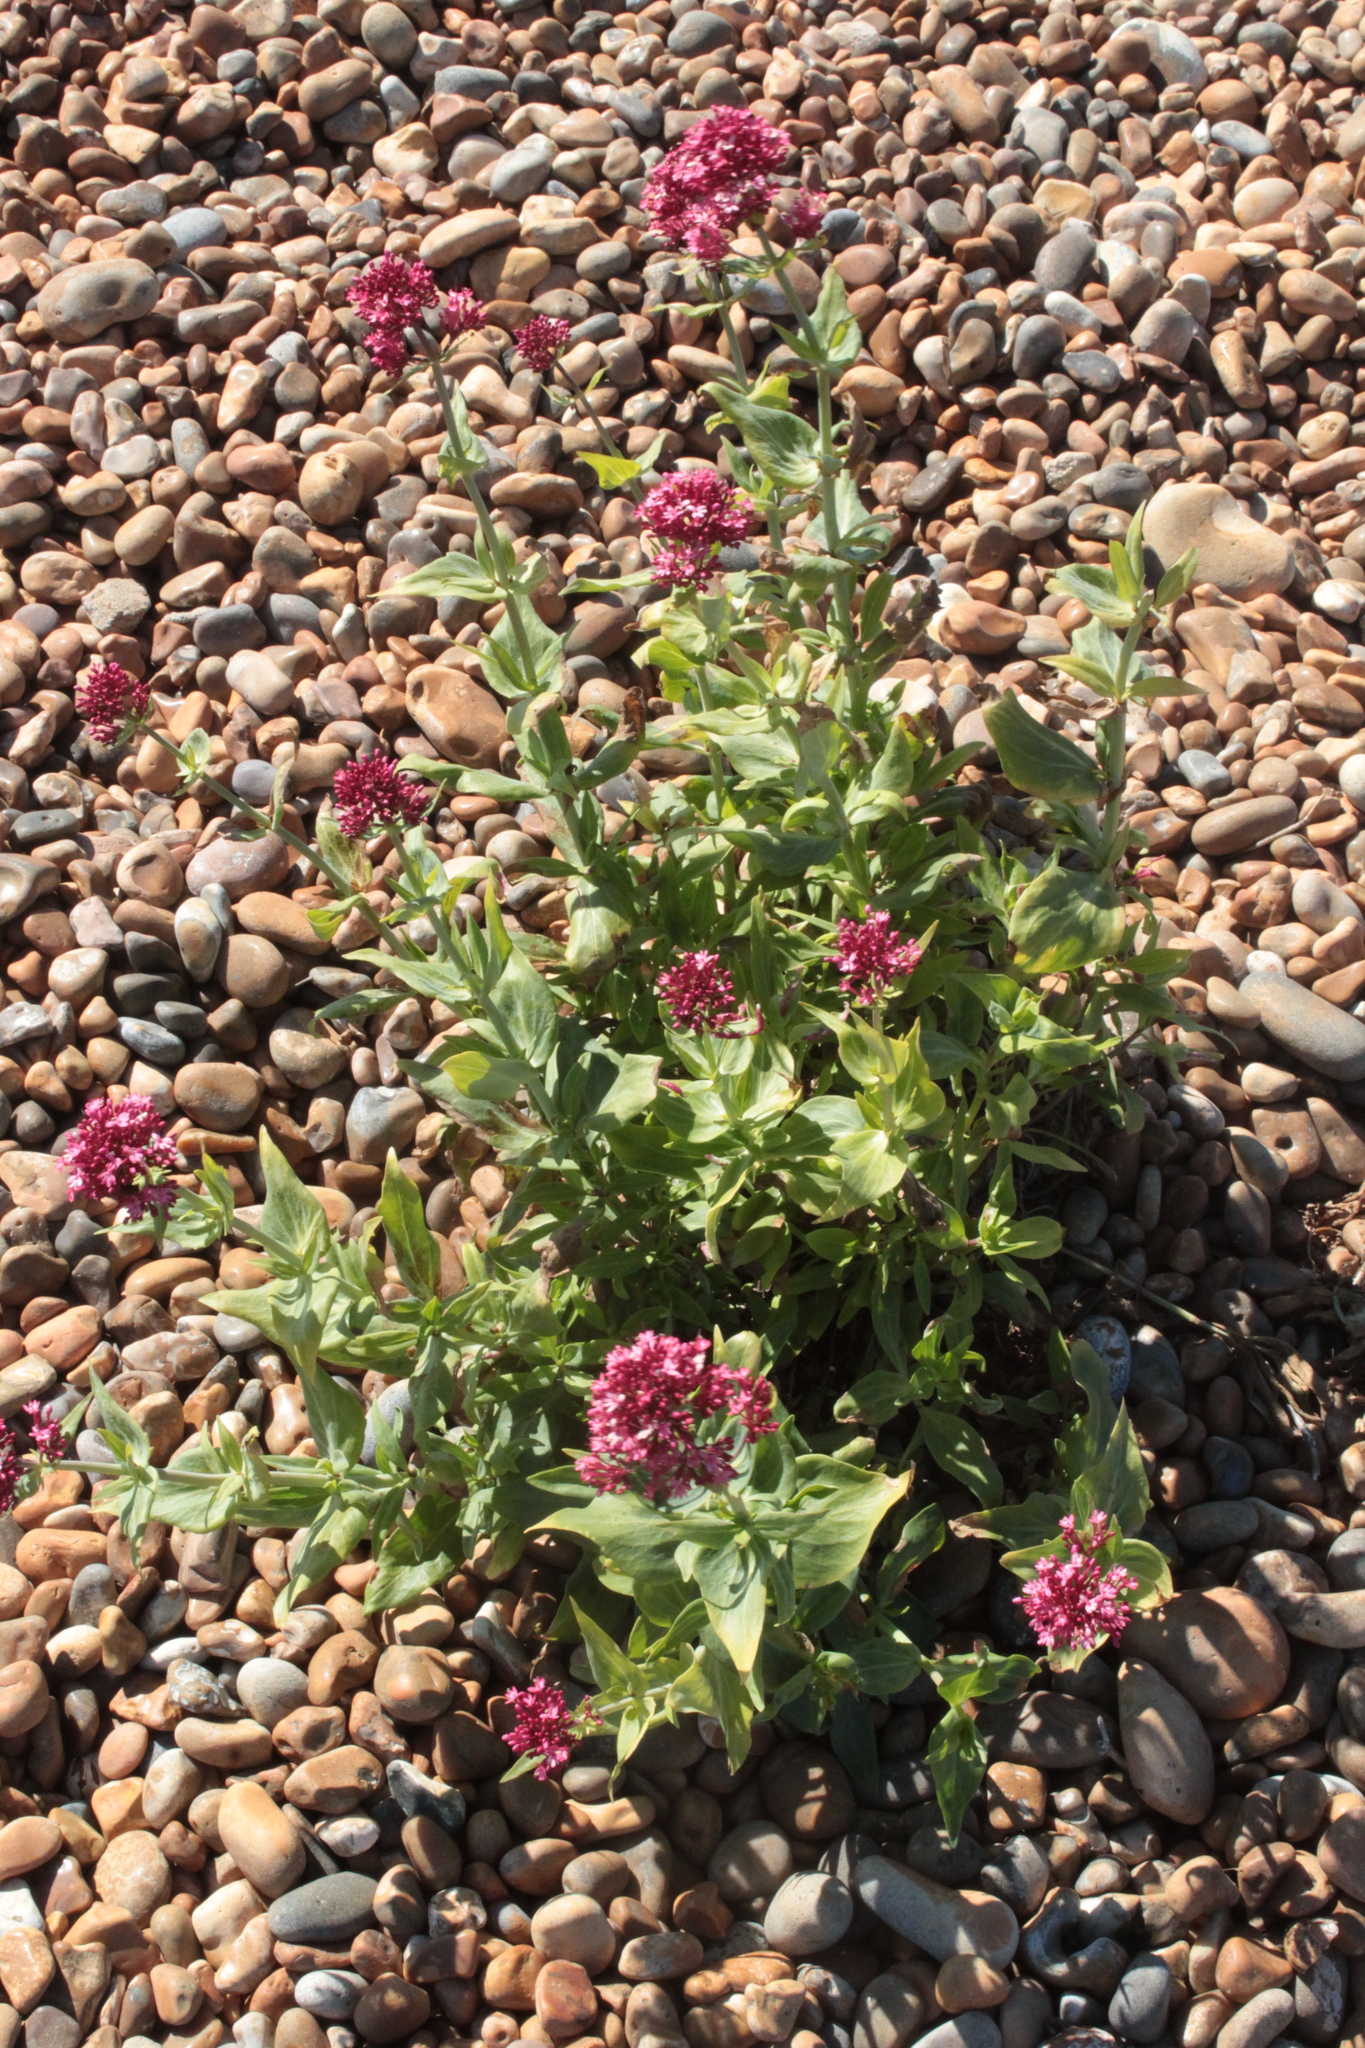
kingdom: Plantae
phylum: Tracheophyta
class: Magnoliopsida
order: Dipsacales
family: Caprifoliaceae
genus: Centranthus
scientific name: Centranthus ruber
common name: Red valerian
